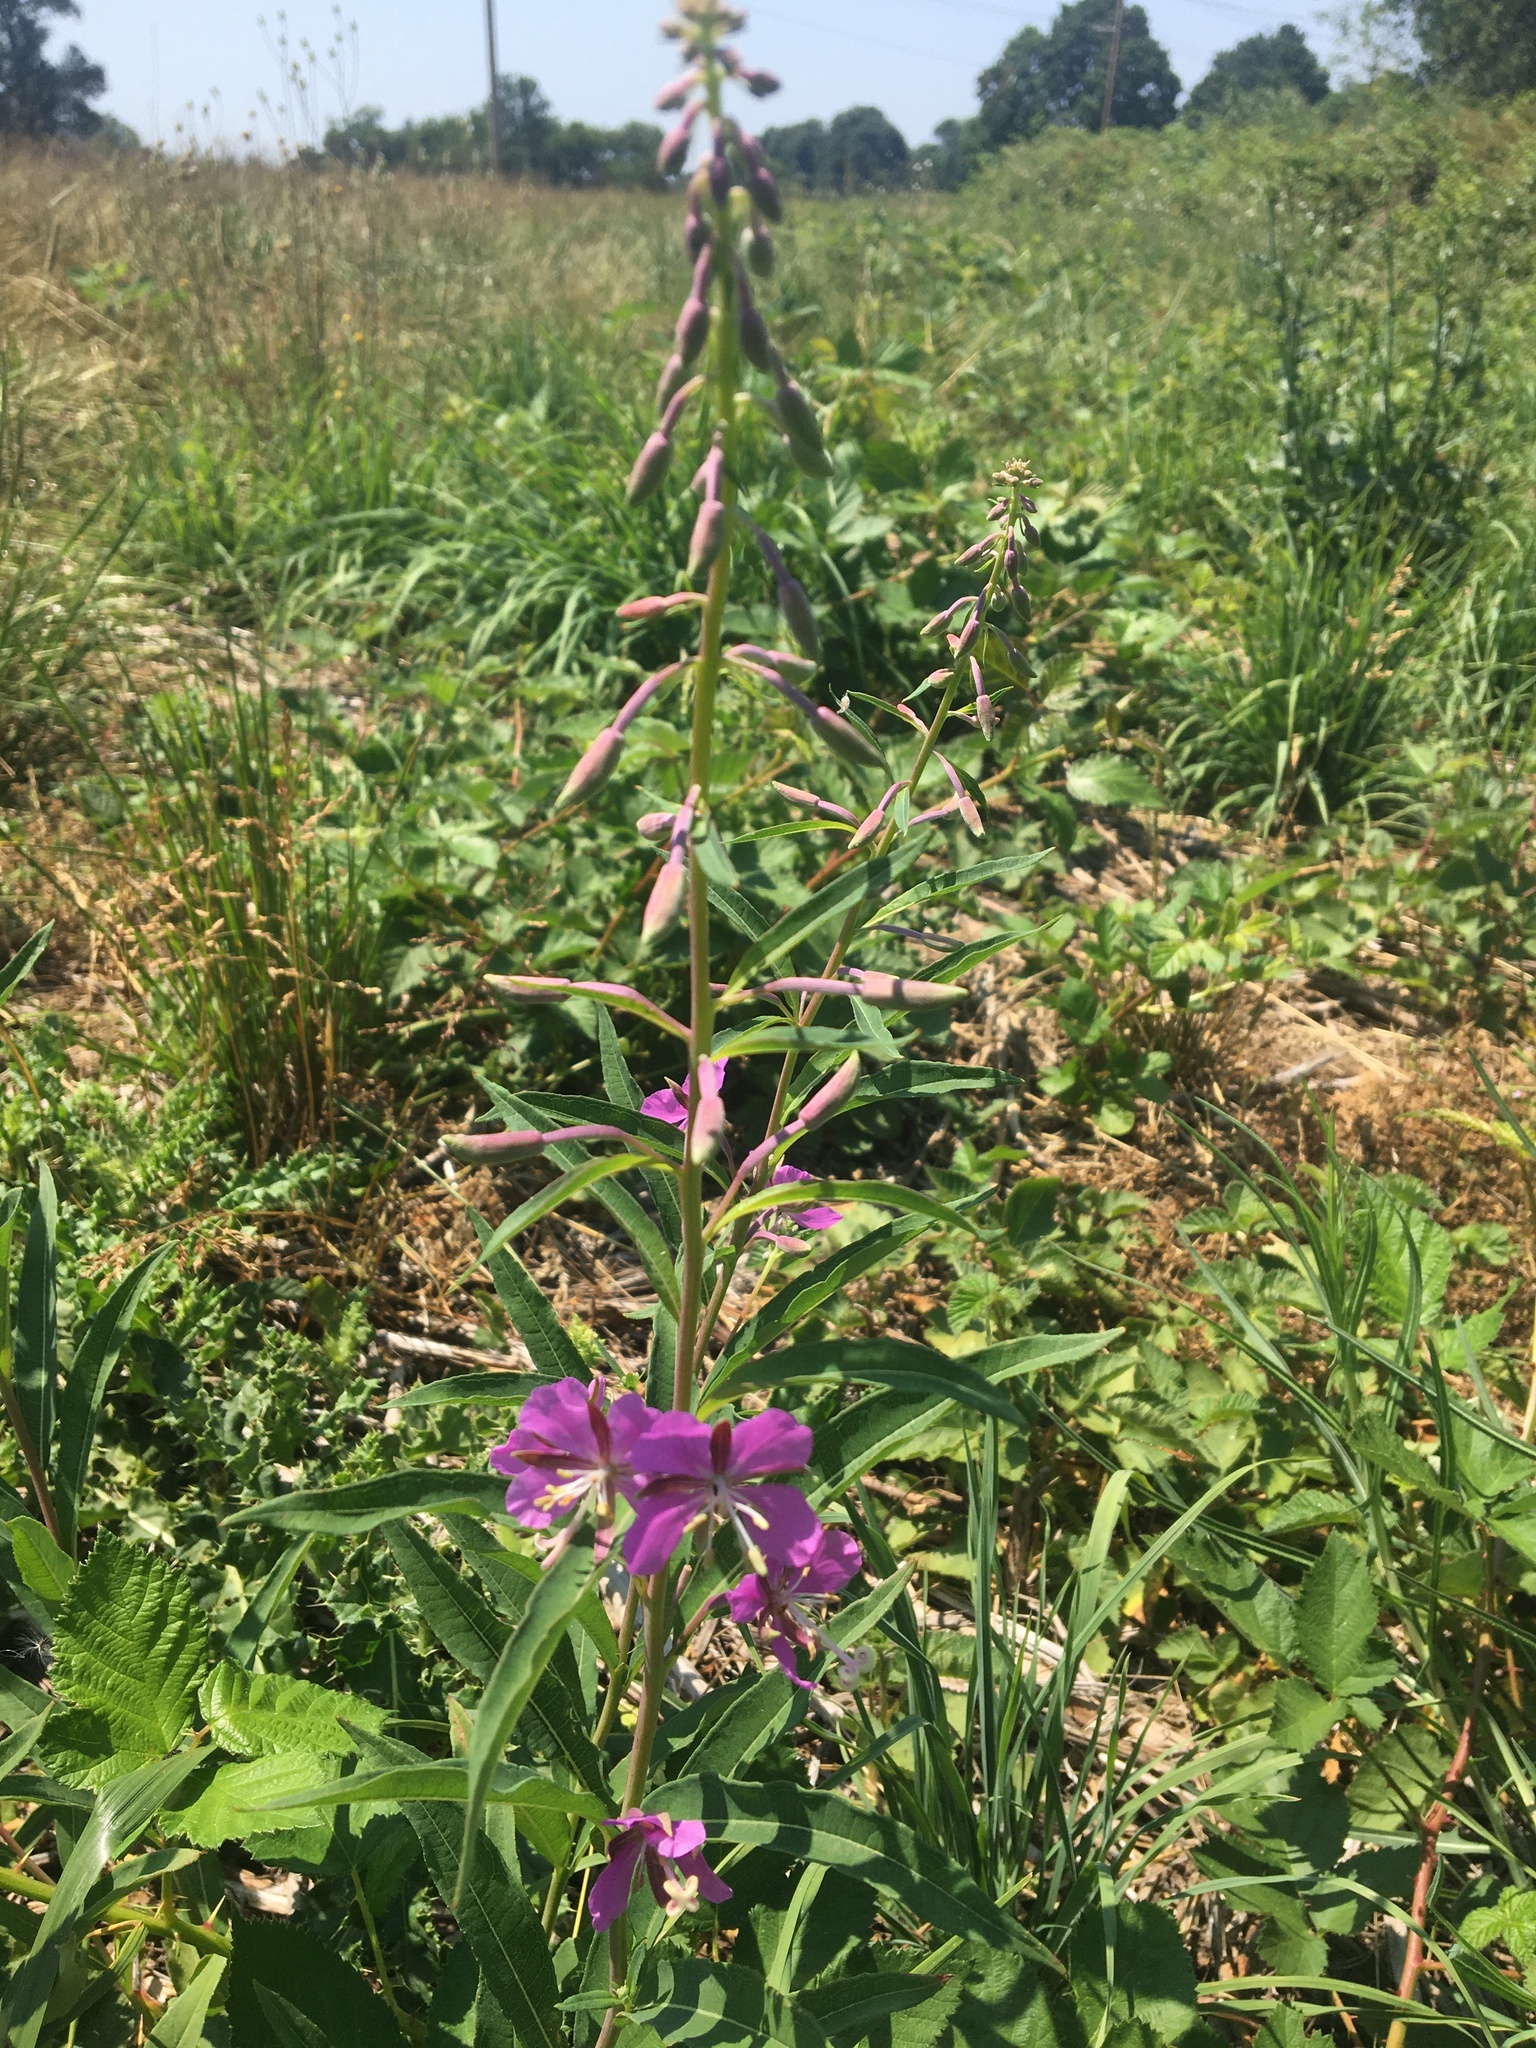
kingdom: Plantae
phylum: Tracheophyta
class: Magnoliopsida
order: Myrtales
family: Onagraceae
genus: Chamaenerion
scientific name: Chamaenerion angustifolium
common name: Fireweed
